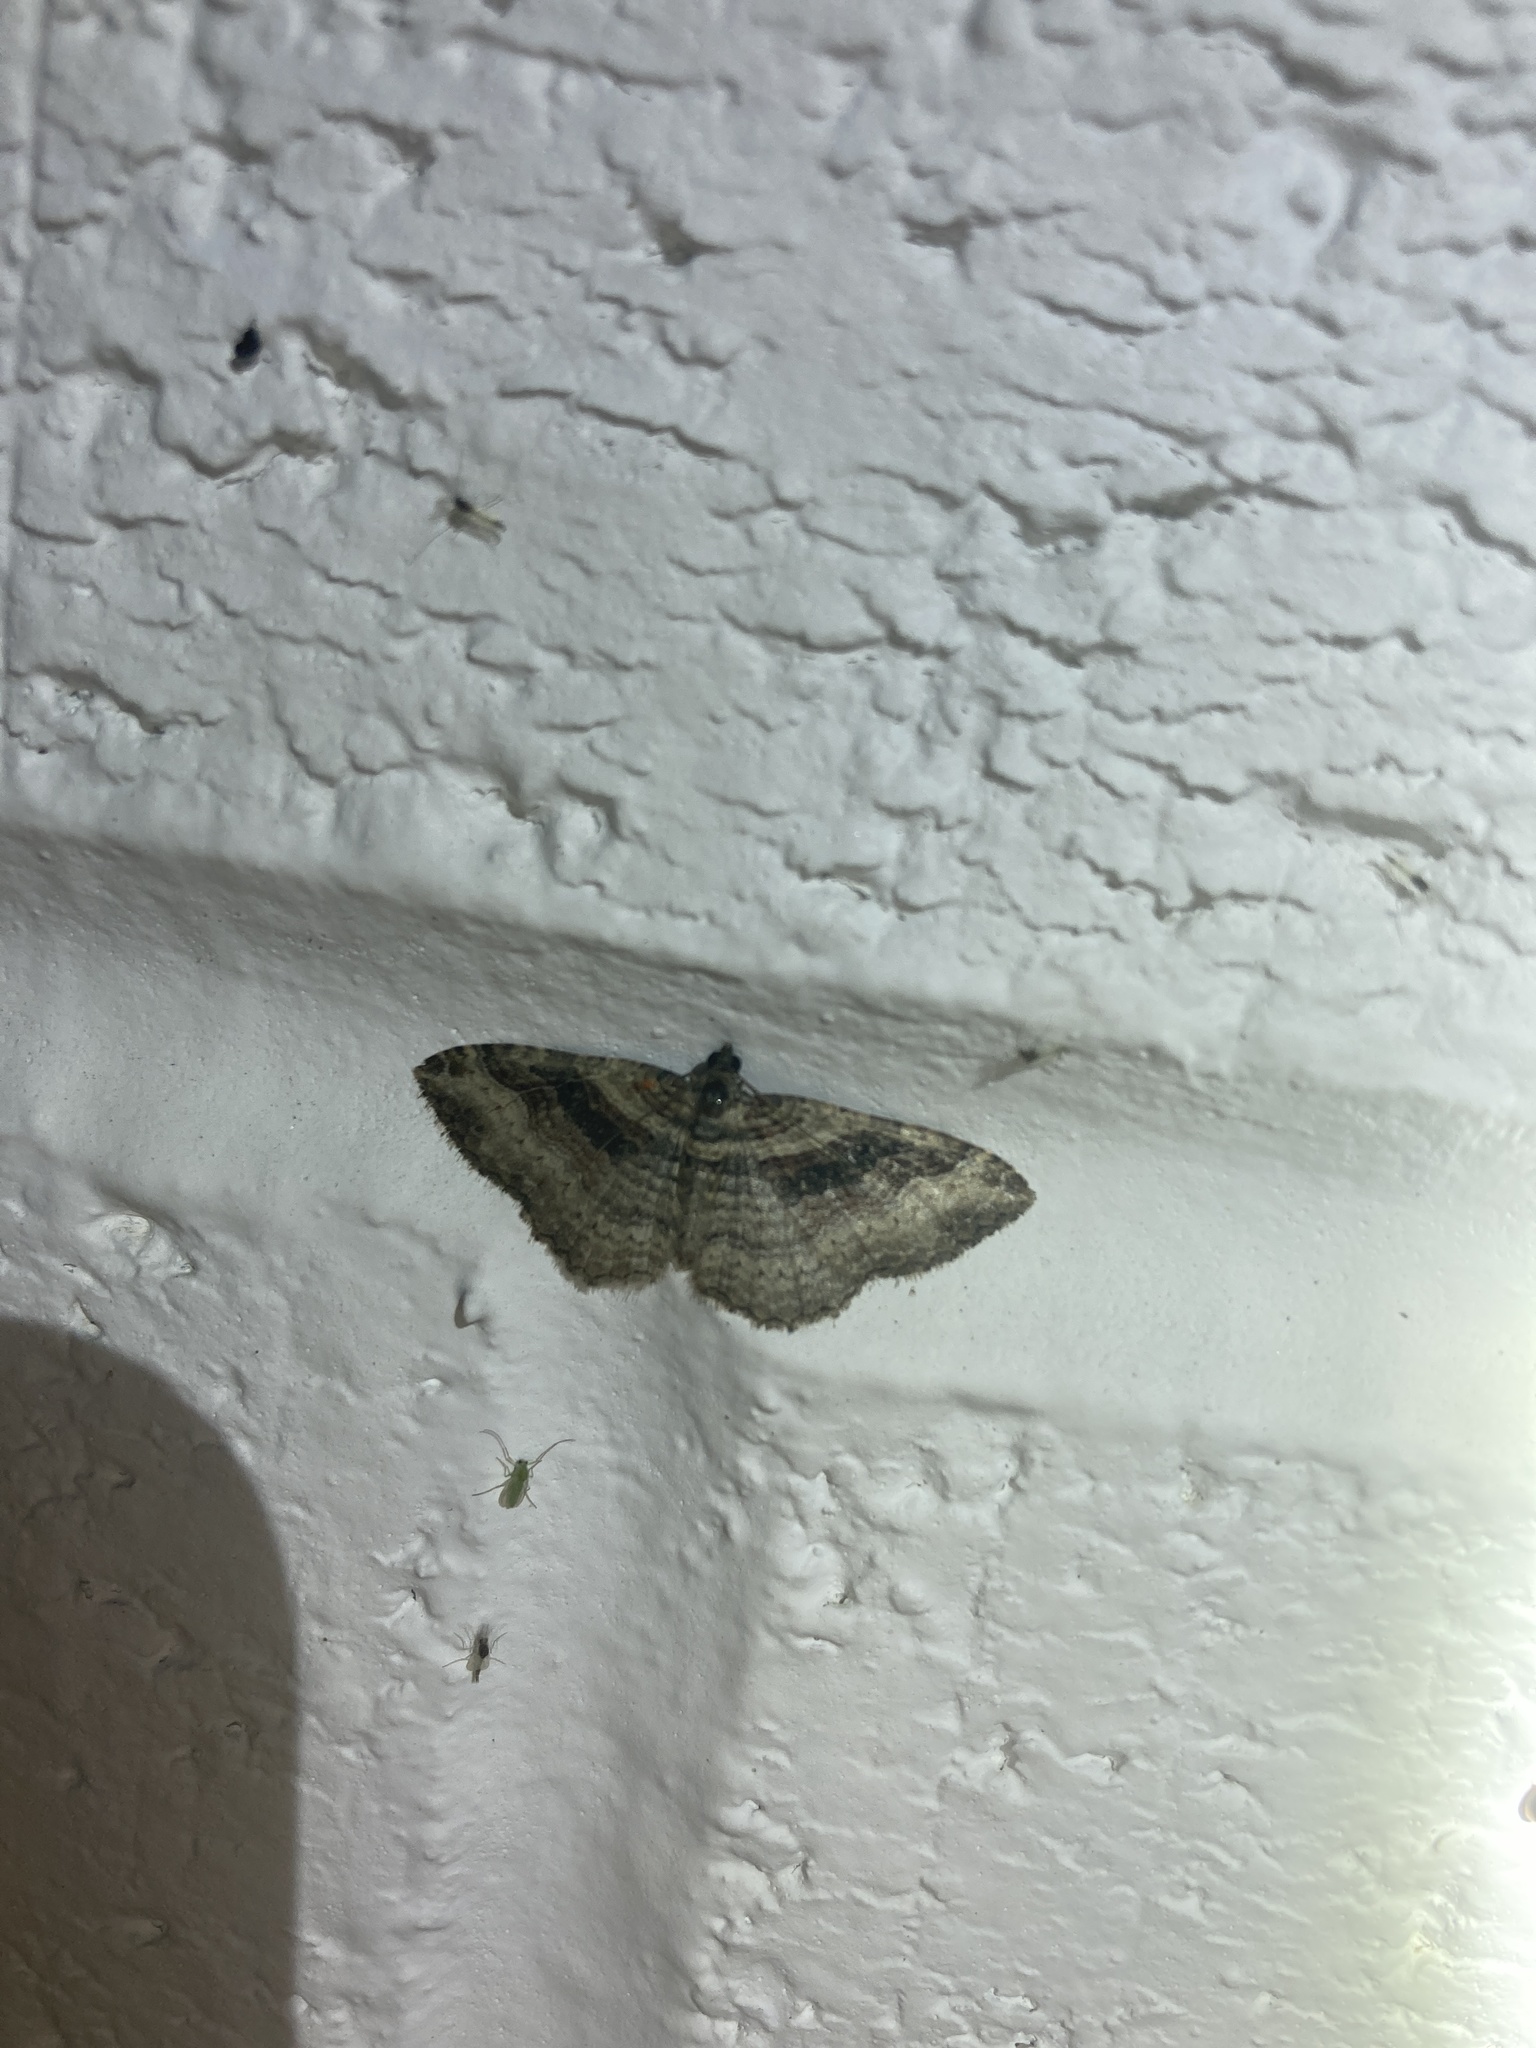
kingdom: Animalia
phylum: Arthropoda
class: Insecta
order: Lepidoptera
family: Geometridae
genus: Costaconvexa
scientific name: Costaconvexa centrostrigaria
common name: Bent-line carpet
